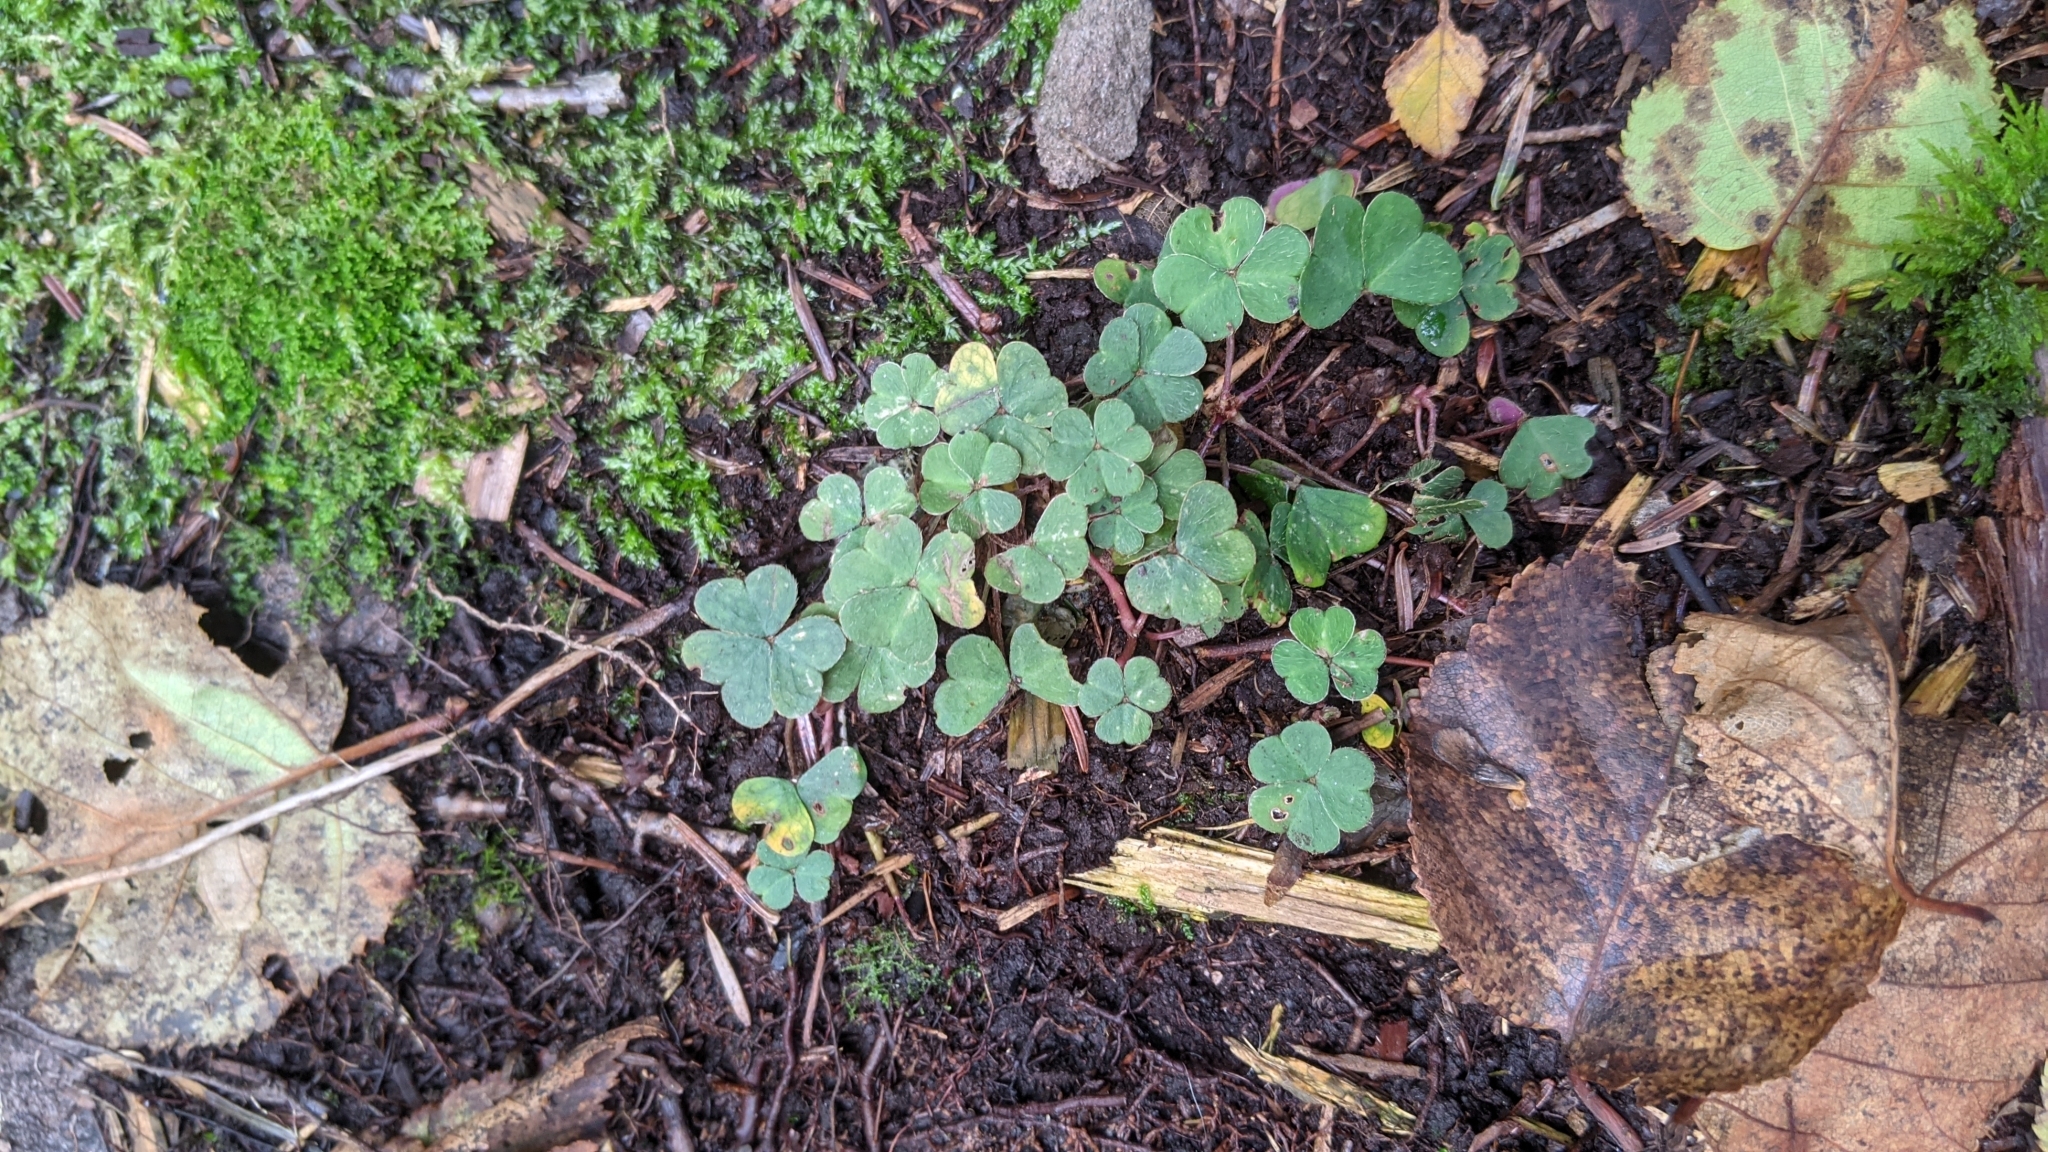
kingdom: Plantae
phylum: Tracheophyta
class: Magnoliopsida
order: Oxalidales
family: Oxalidaceae
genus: Oxalis
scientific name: Oxalis montana
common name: American wood-sorrel
